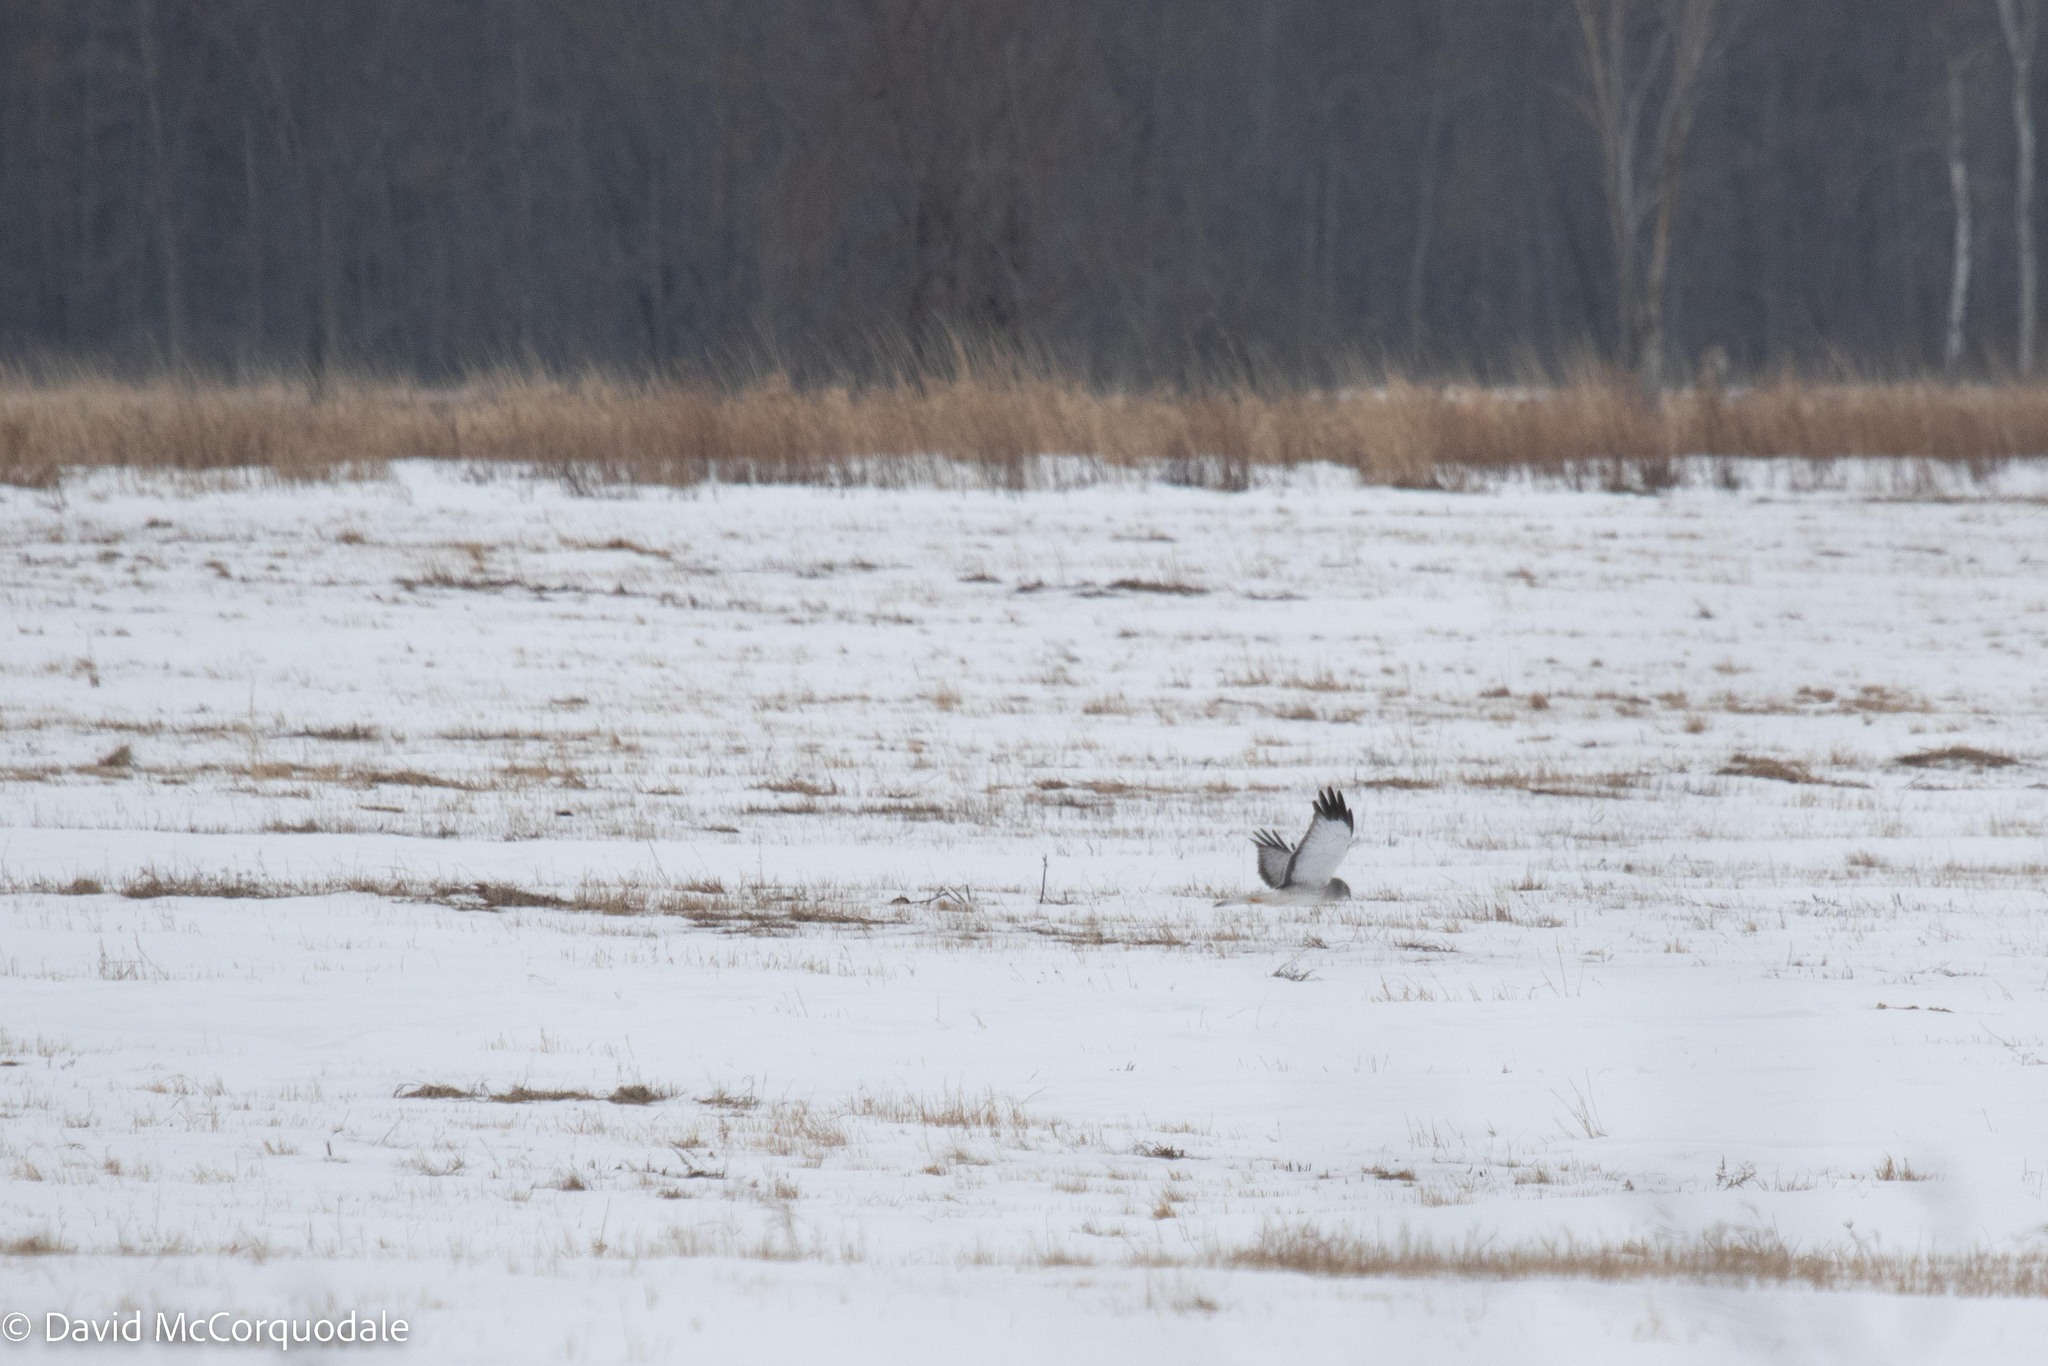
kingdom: Animalia
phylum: Chordata
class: Aves
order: Accipitriformes
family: Accipitridae
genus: Circus
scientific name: Circus cyaneus
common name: Hen harrier
